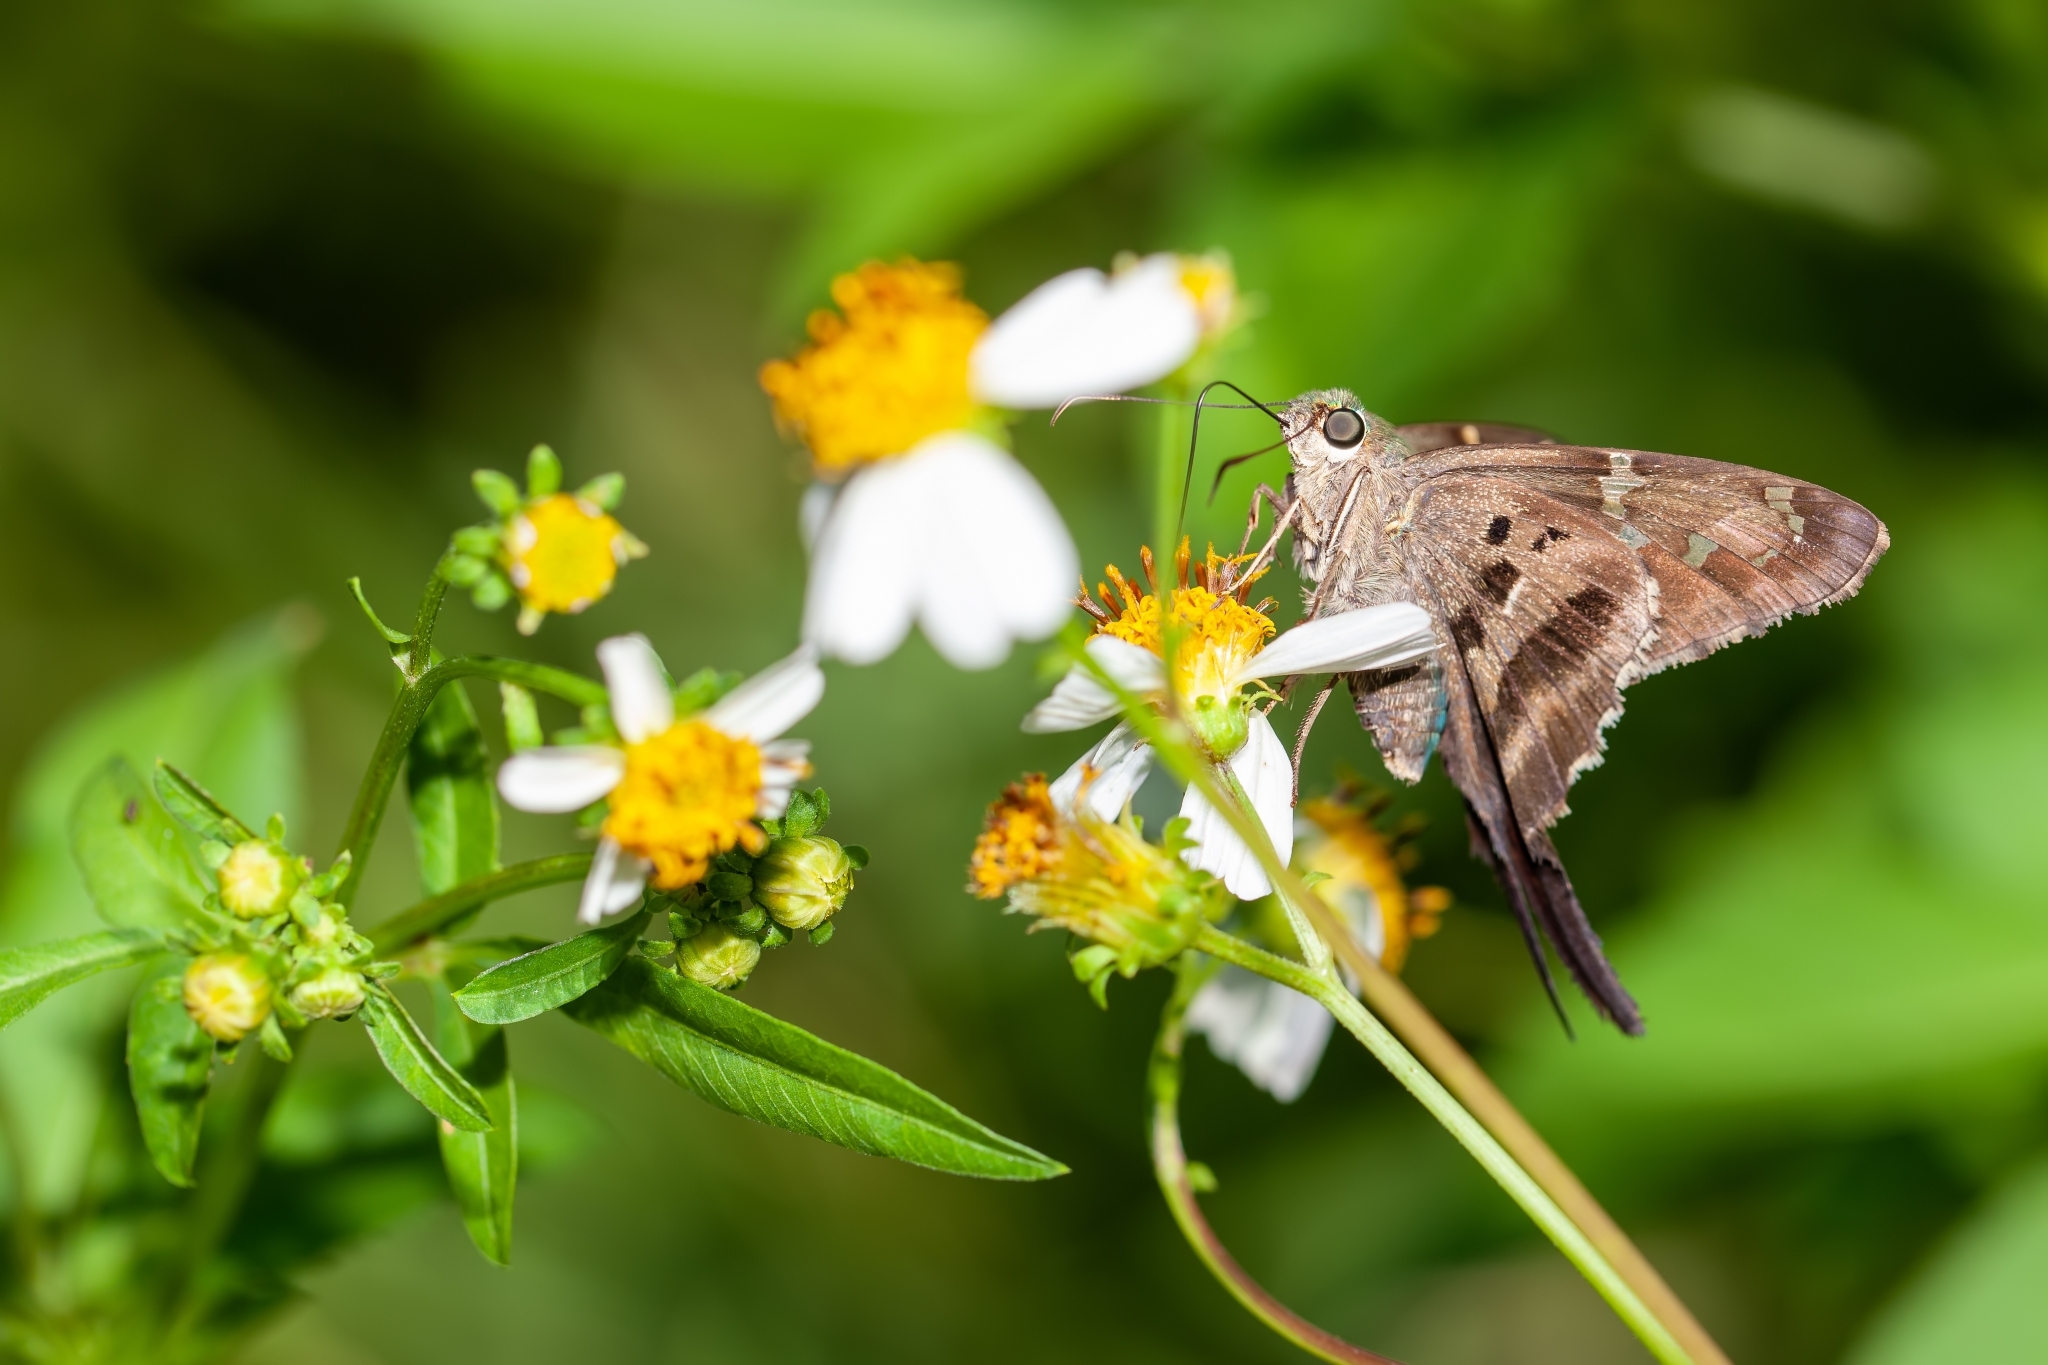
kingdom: Animalia
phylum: Arthropoda
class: Insecta
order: Lepidoptera
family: Hesperiidae
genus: Urbanus
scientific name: Urbanus proteus
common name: Long-tailed skipper
